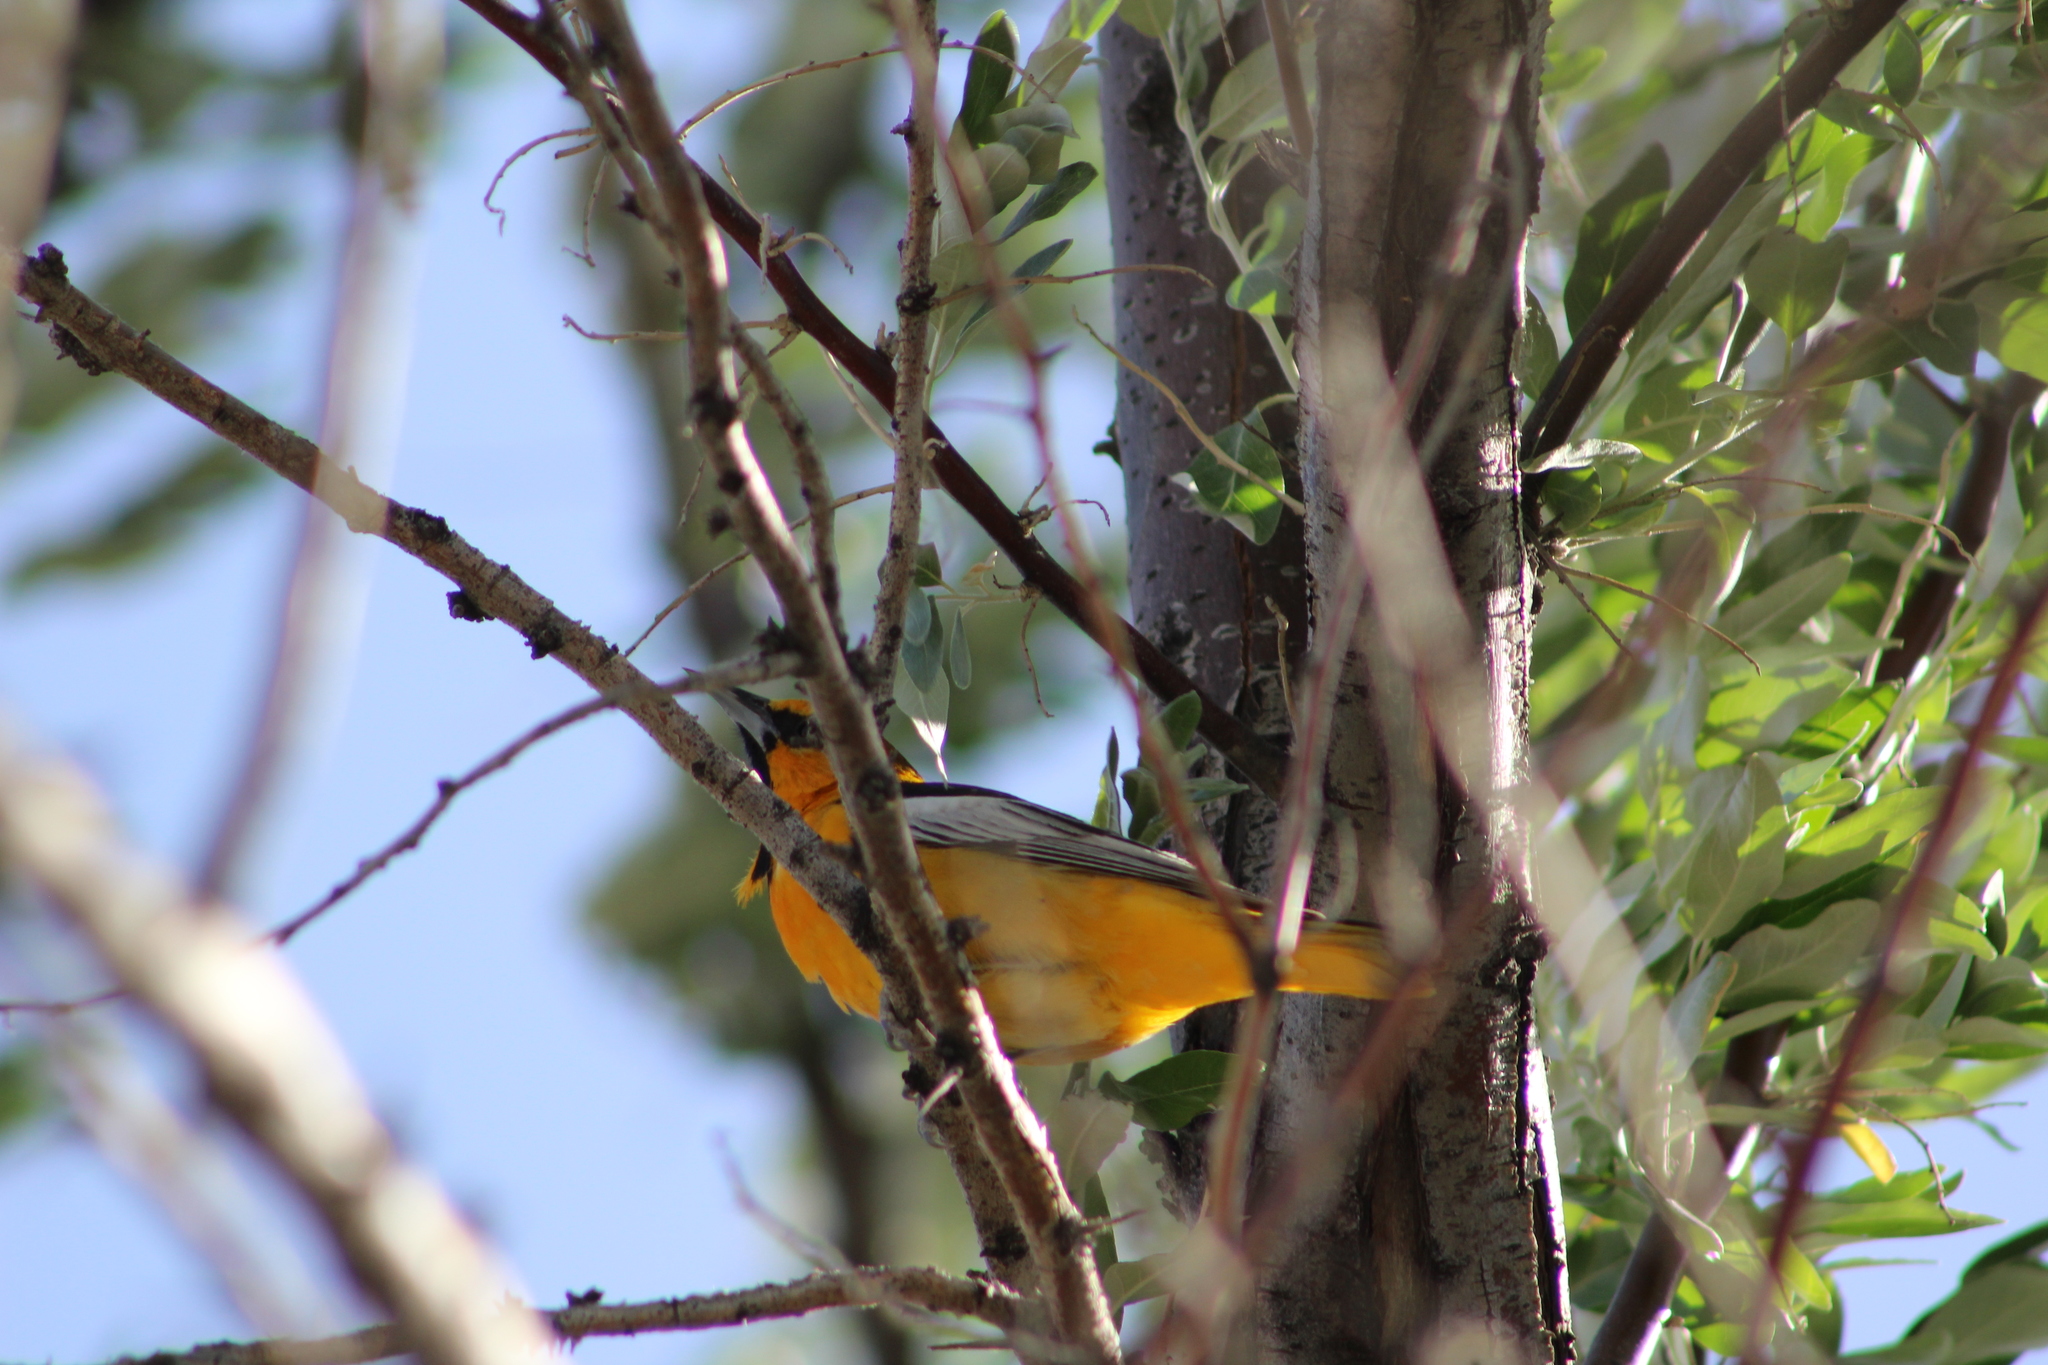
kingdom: Animalia
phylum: Chordata
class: Aves
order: Passeriformes
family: Icteridae
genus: Icterus
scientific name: Icterus bullockii
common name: Bullock's oriole
